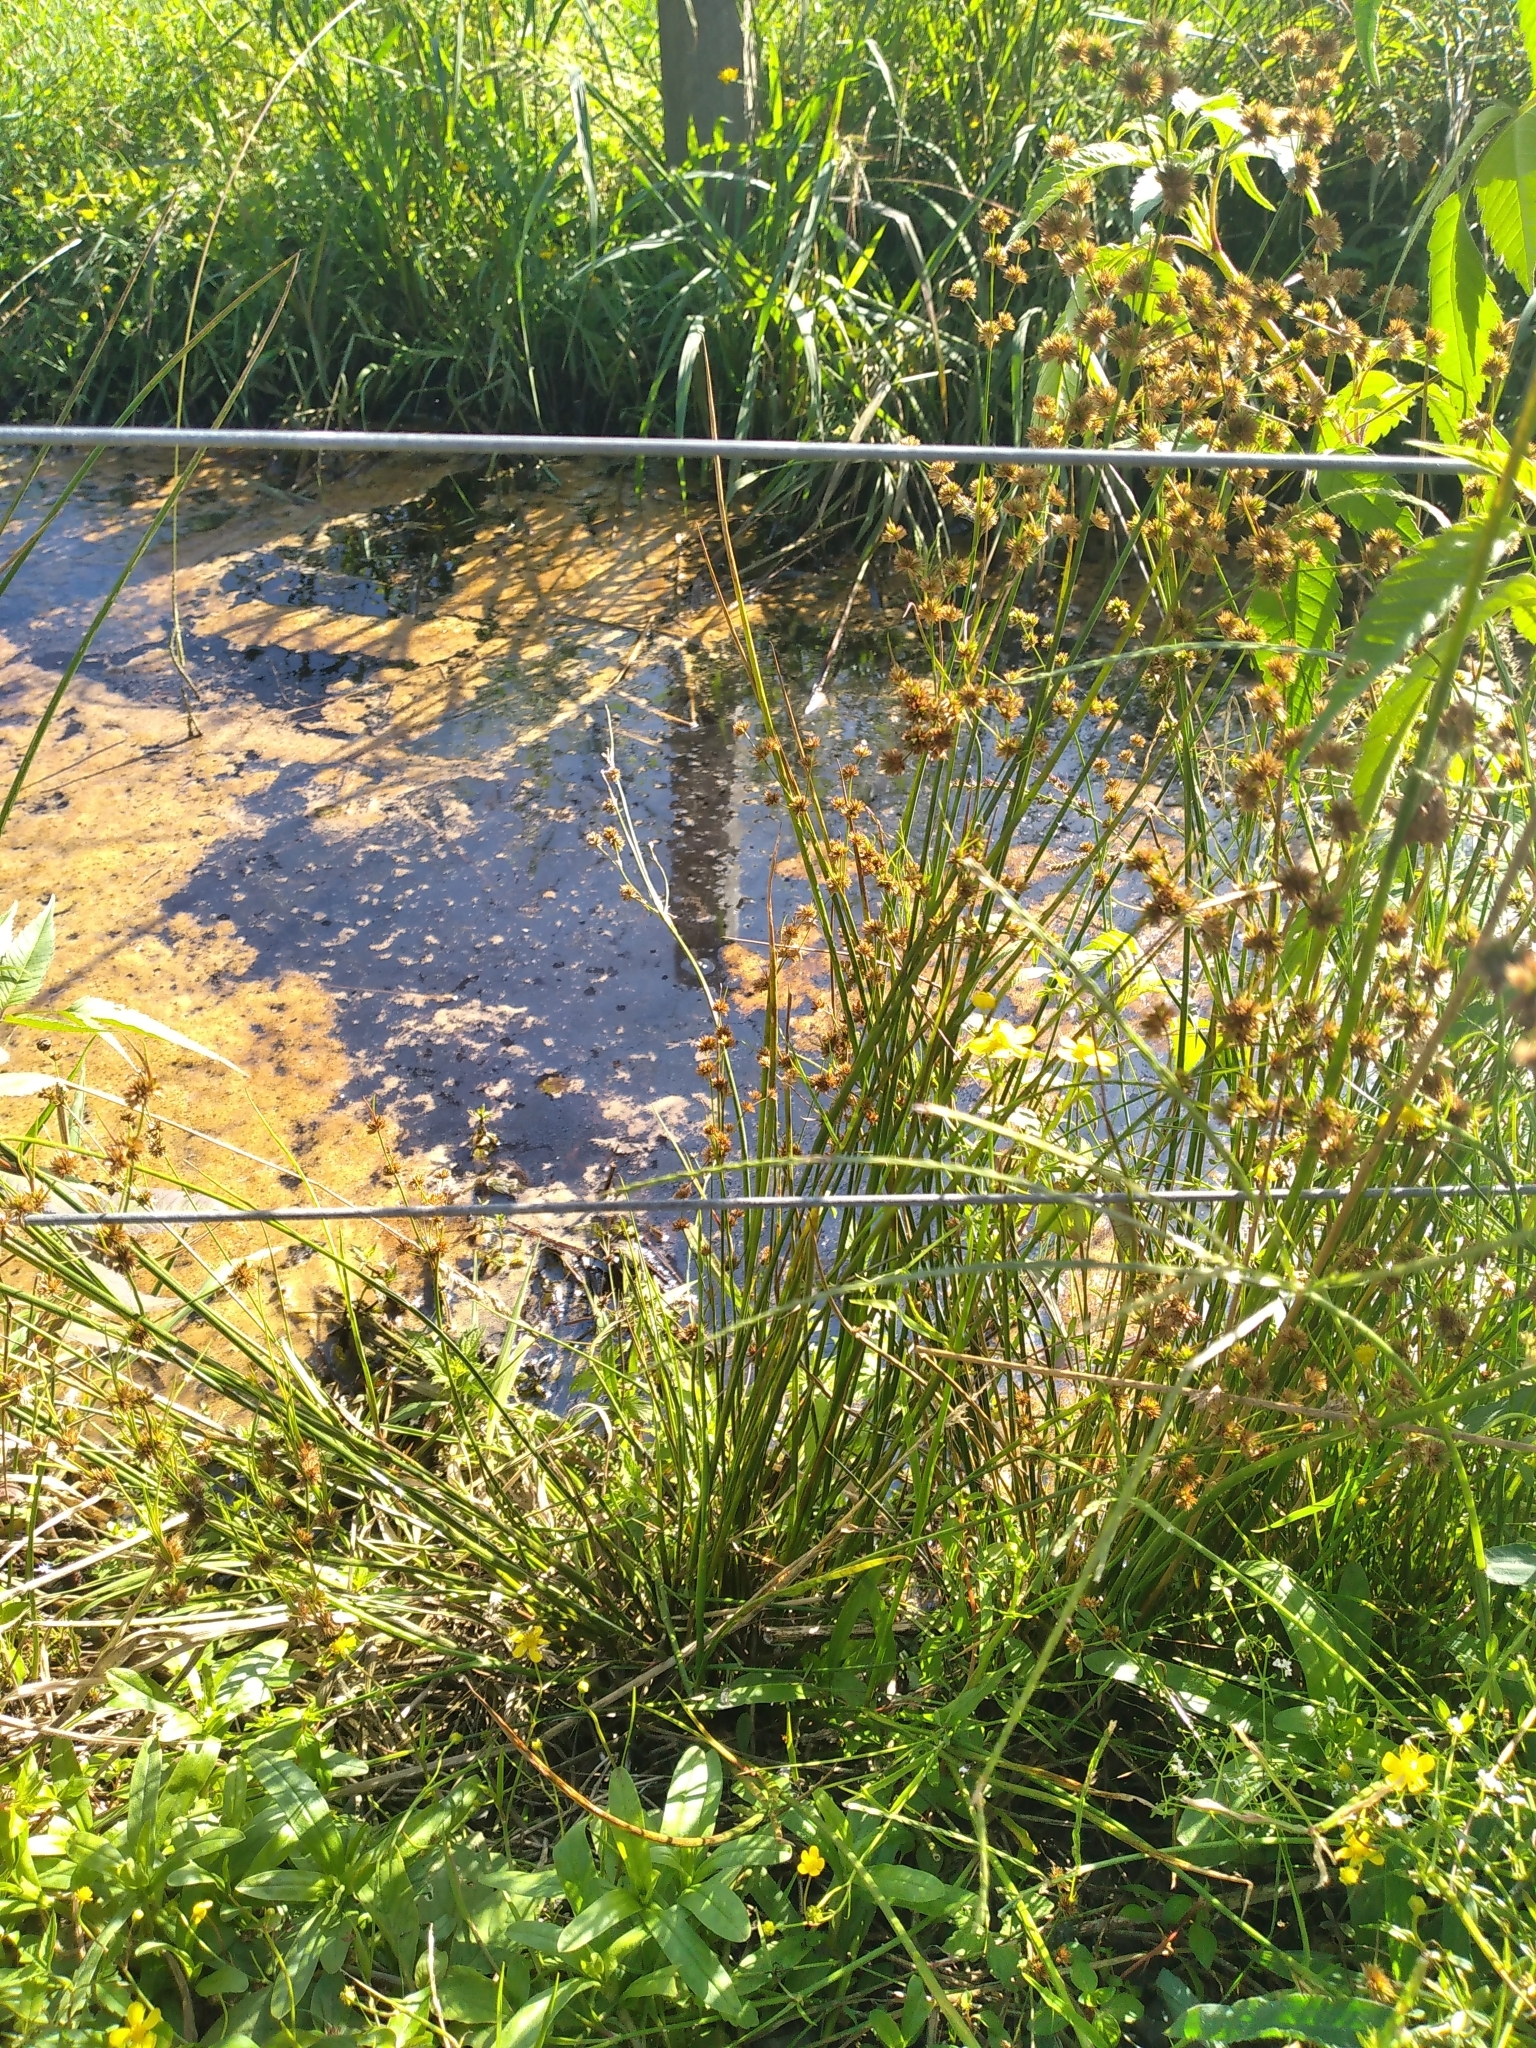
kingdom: Plantae
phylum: Tracheophyta
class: Liliopsida
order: Poales
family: Juncaceae
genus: Juncus
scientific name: Juncus fockei
